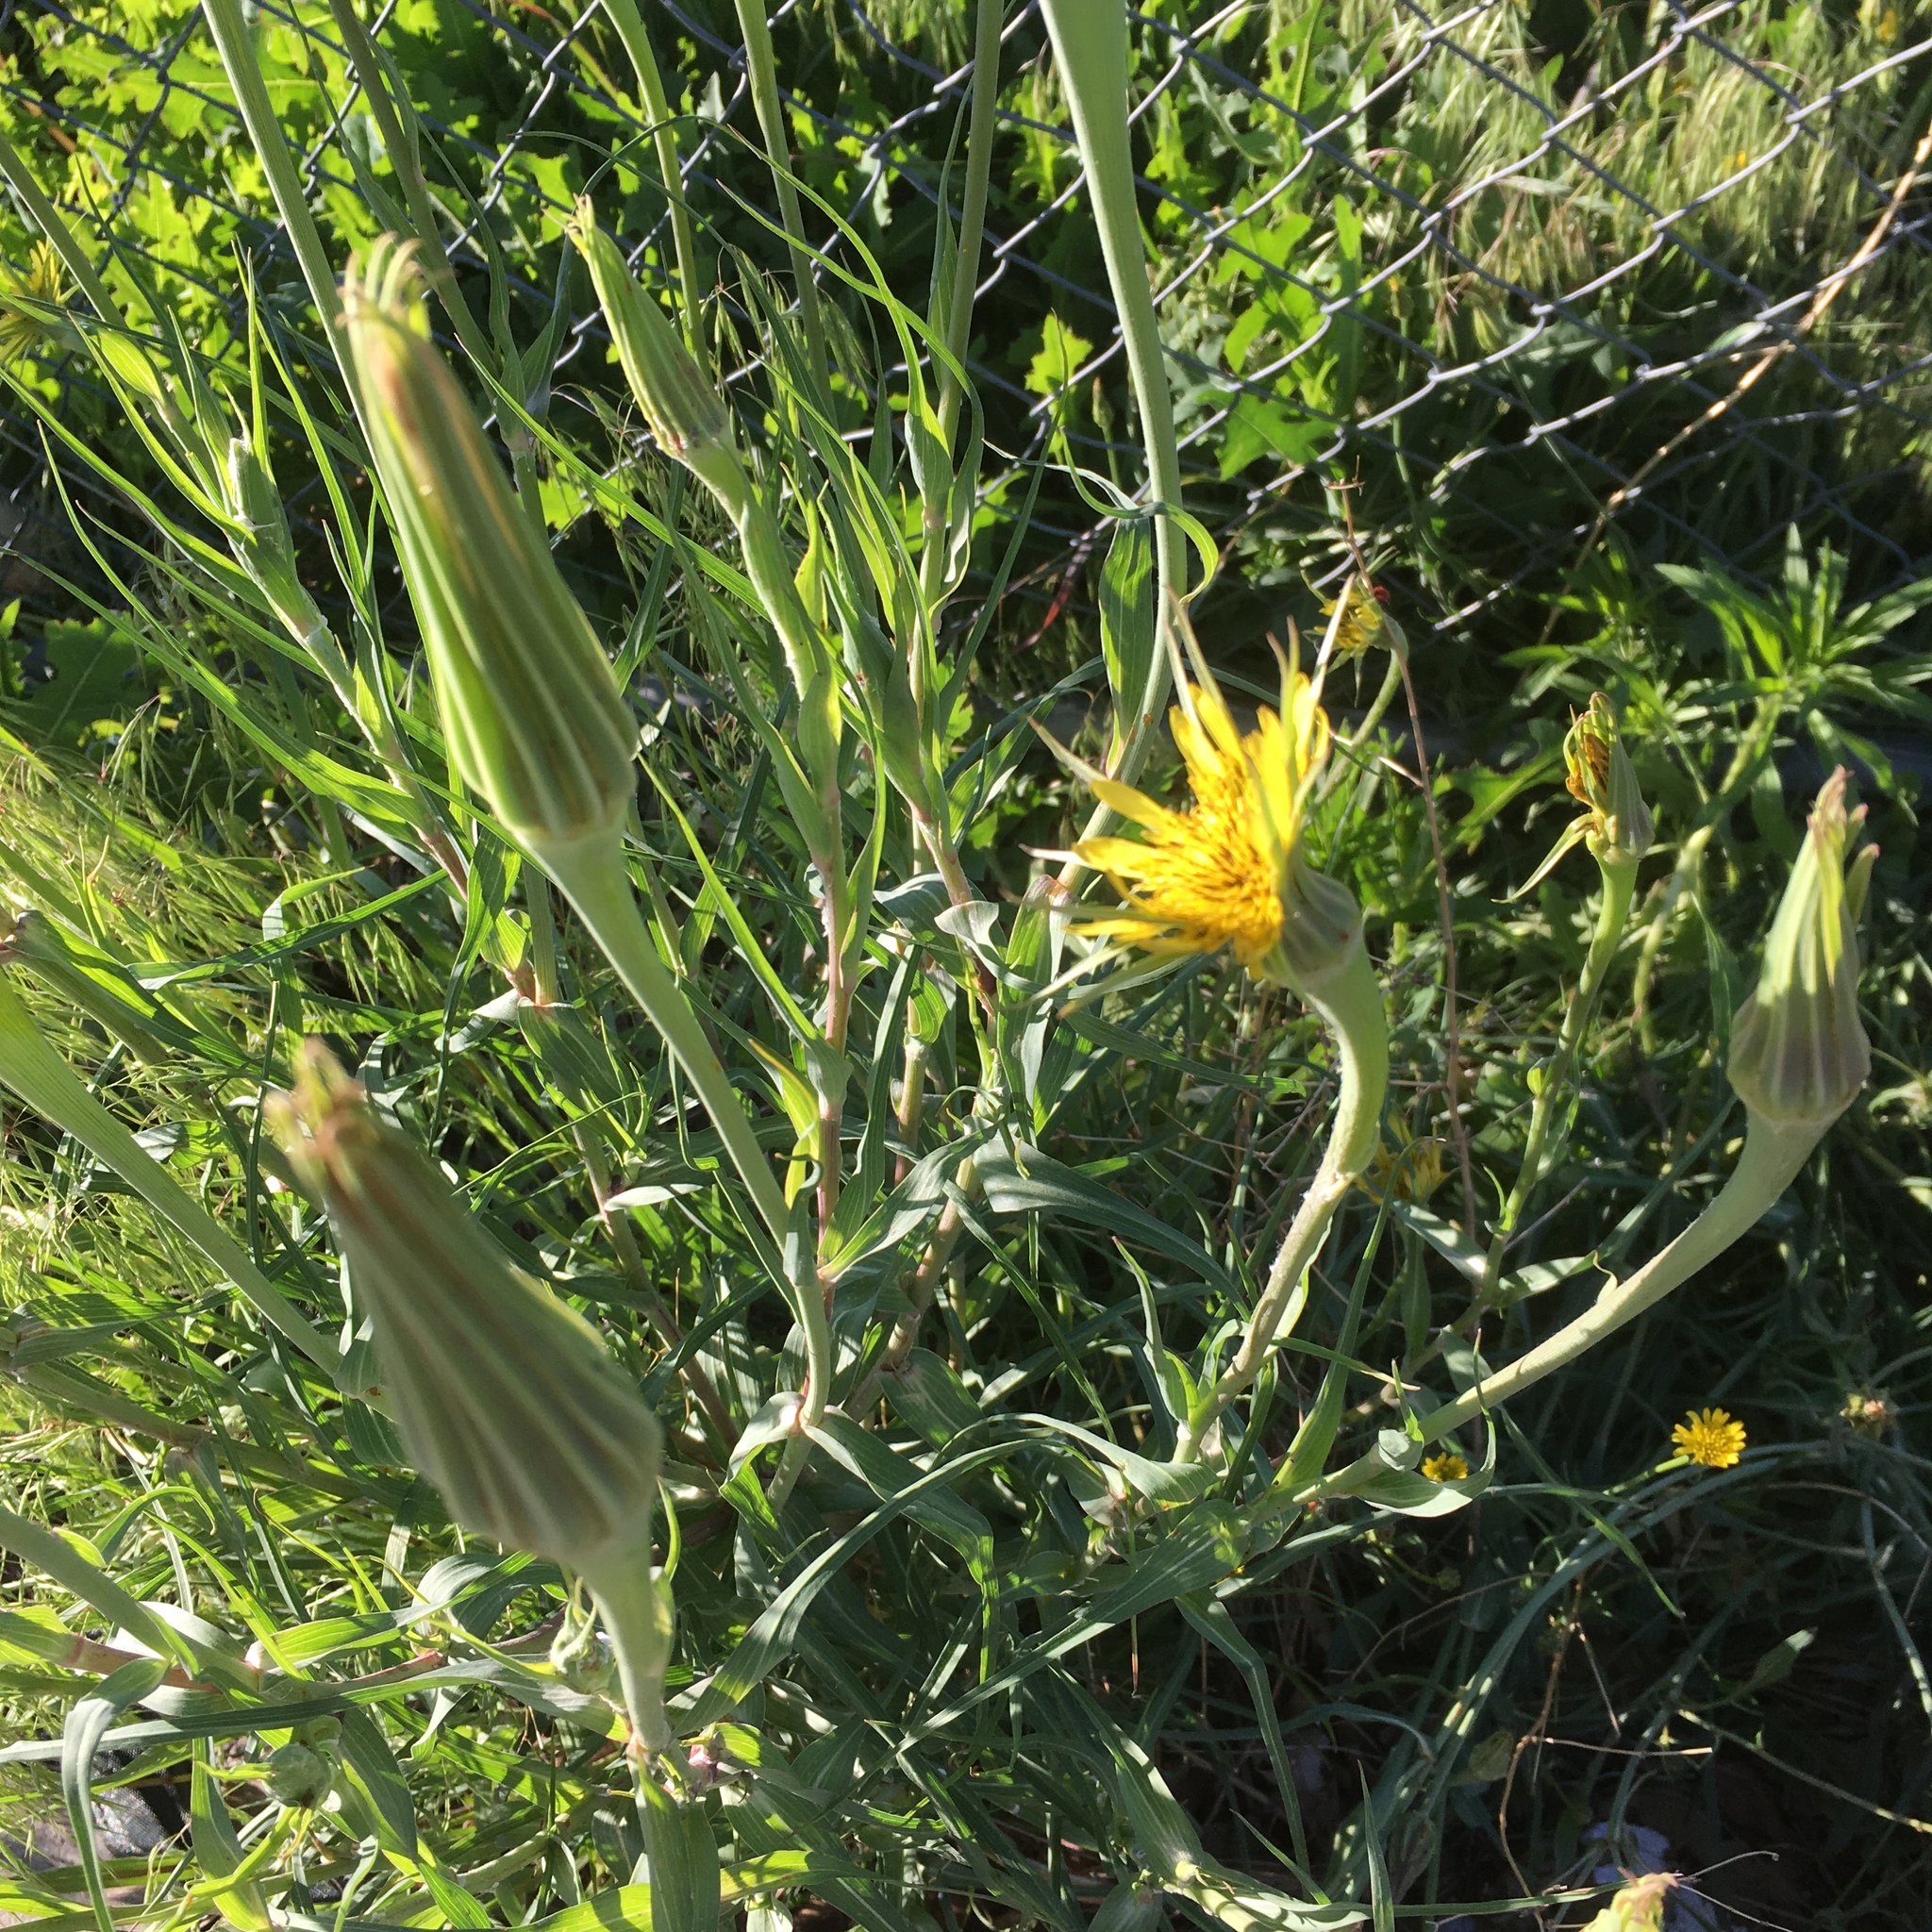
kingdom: Plantae
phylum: Tracheophyta
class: Magnoliopsida
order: Asterales
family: Asteraceae
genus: Tragopogon
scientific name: Tragopogon dubius
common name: Yellow salsify
